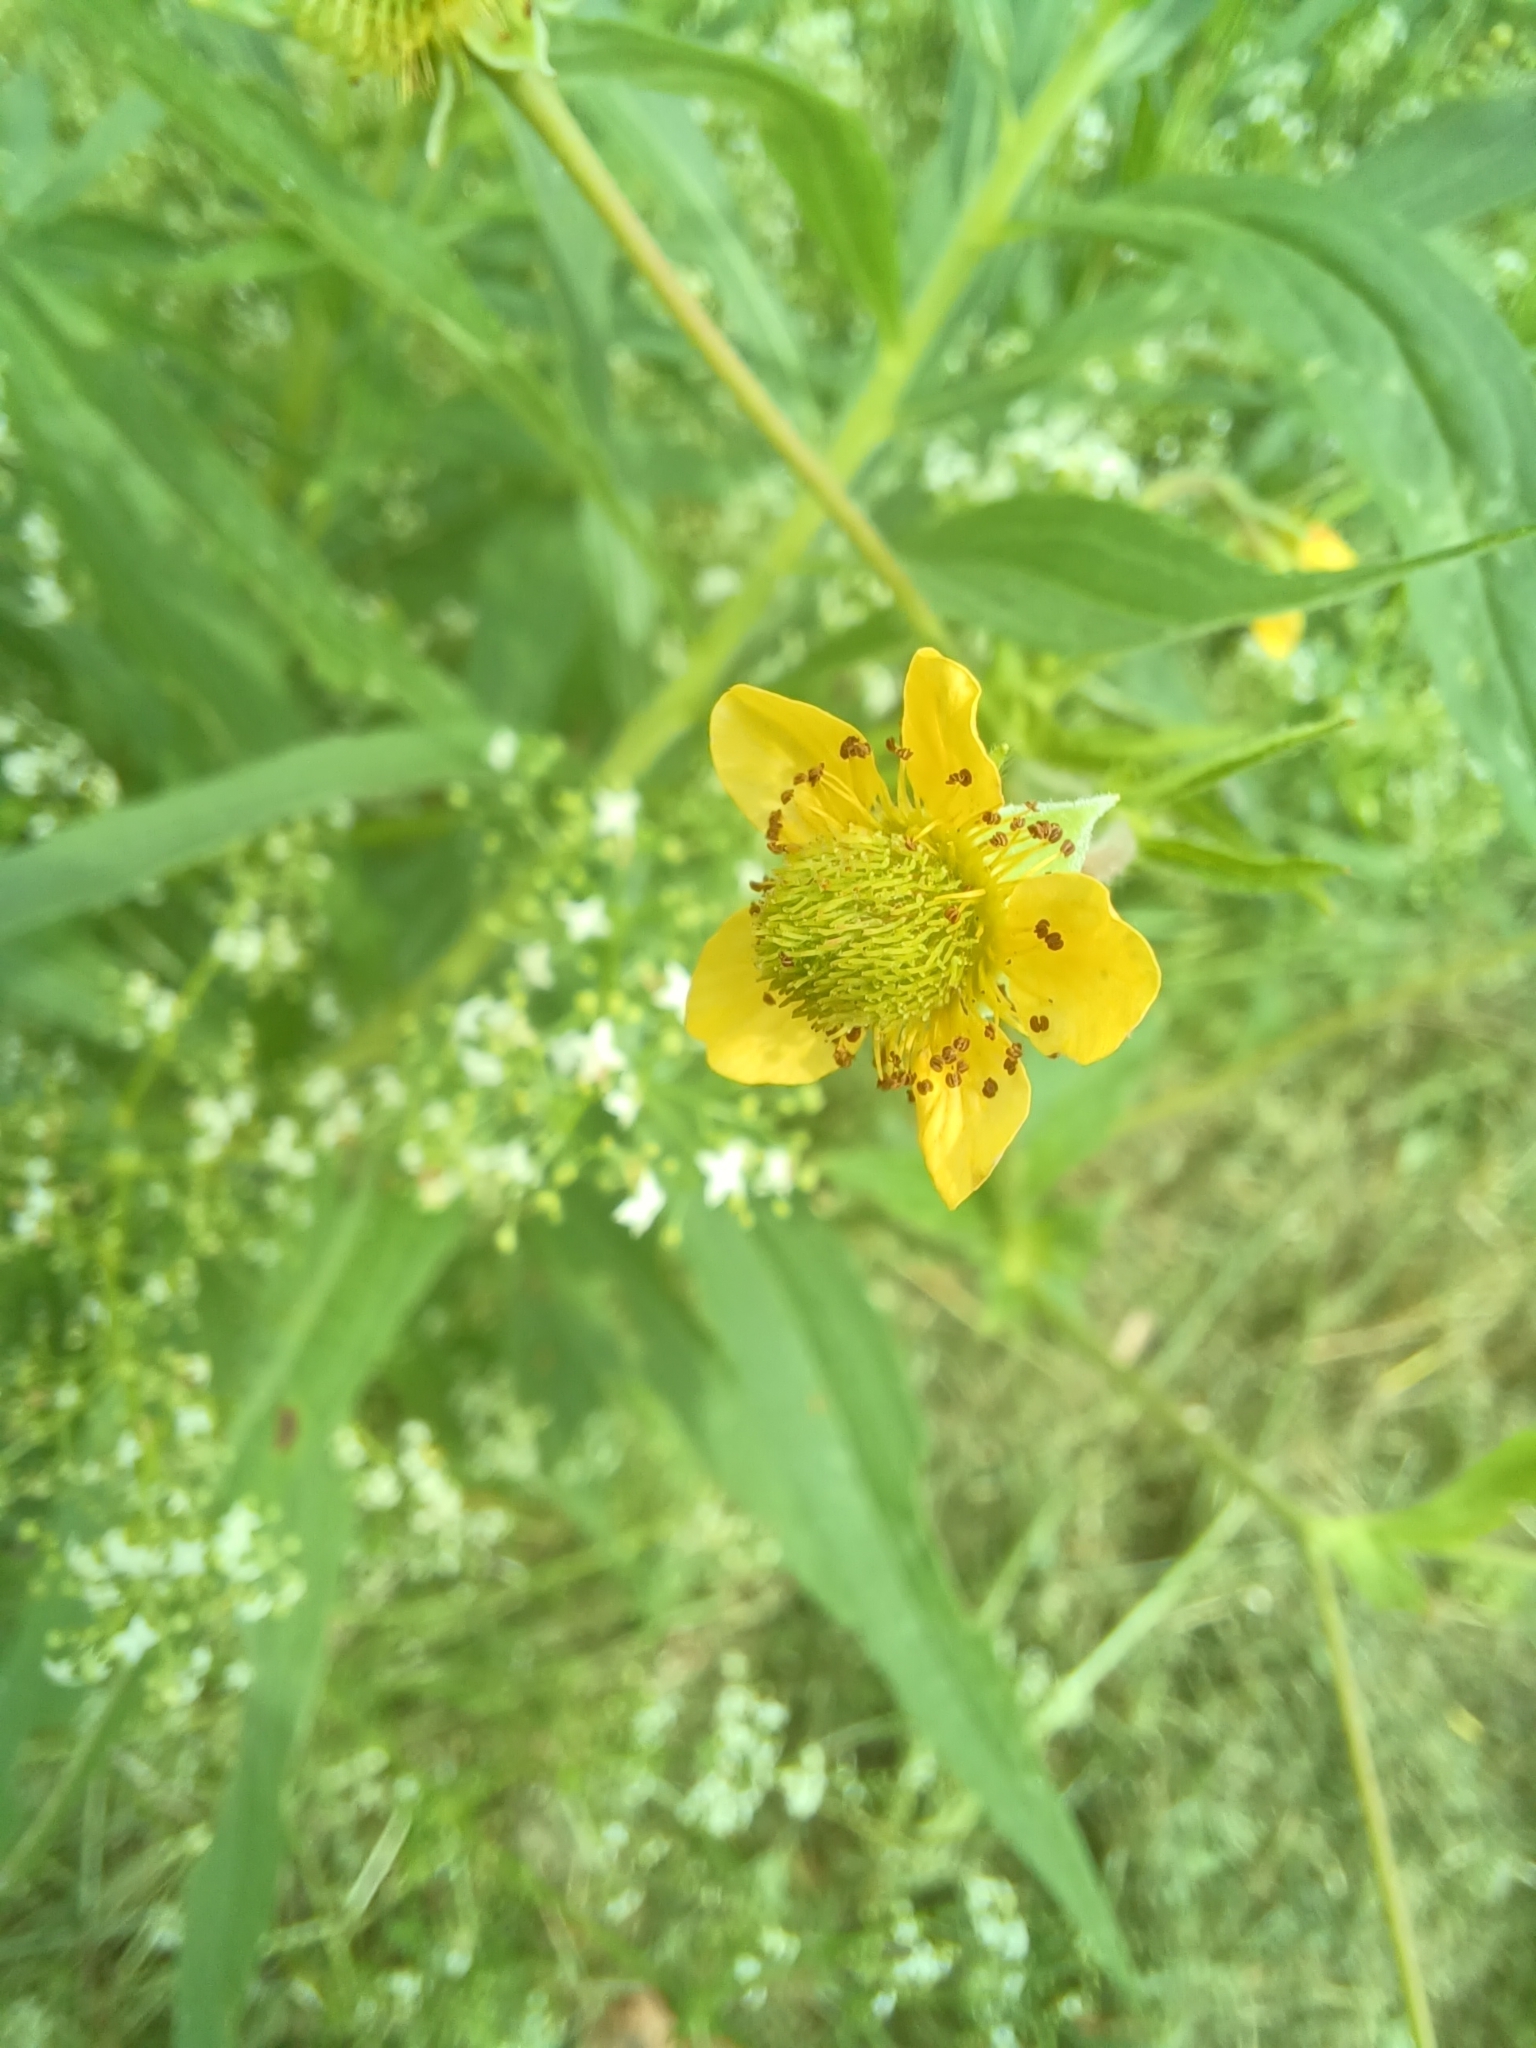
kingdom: Plantae
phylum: Tracheophyta
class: Magnoliopsida
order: Rosales
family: Rosaceae
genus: Geum
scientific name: Geum aleppicum
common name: Yellow avens
